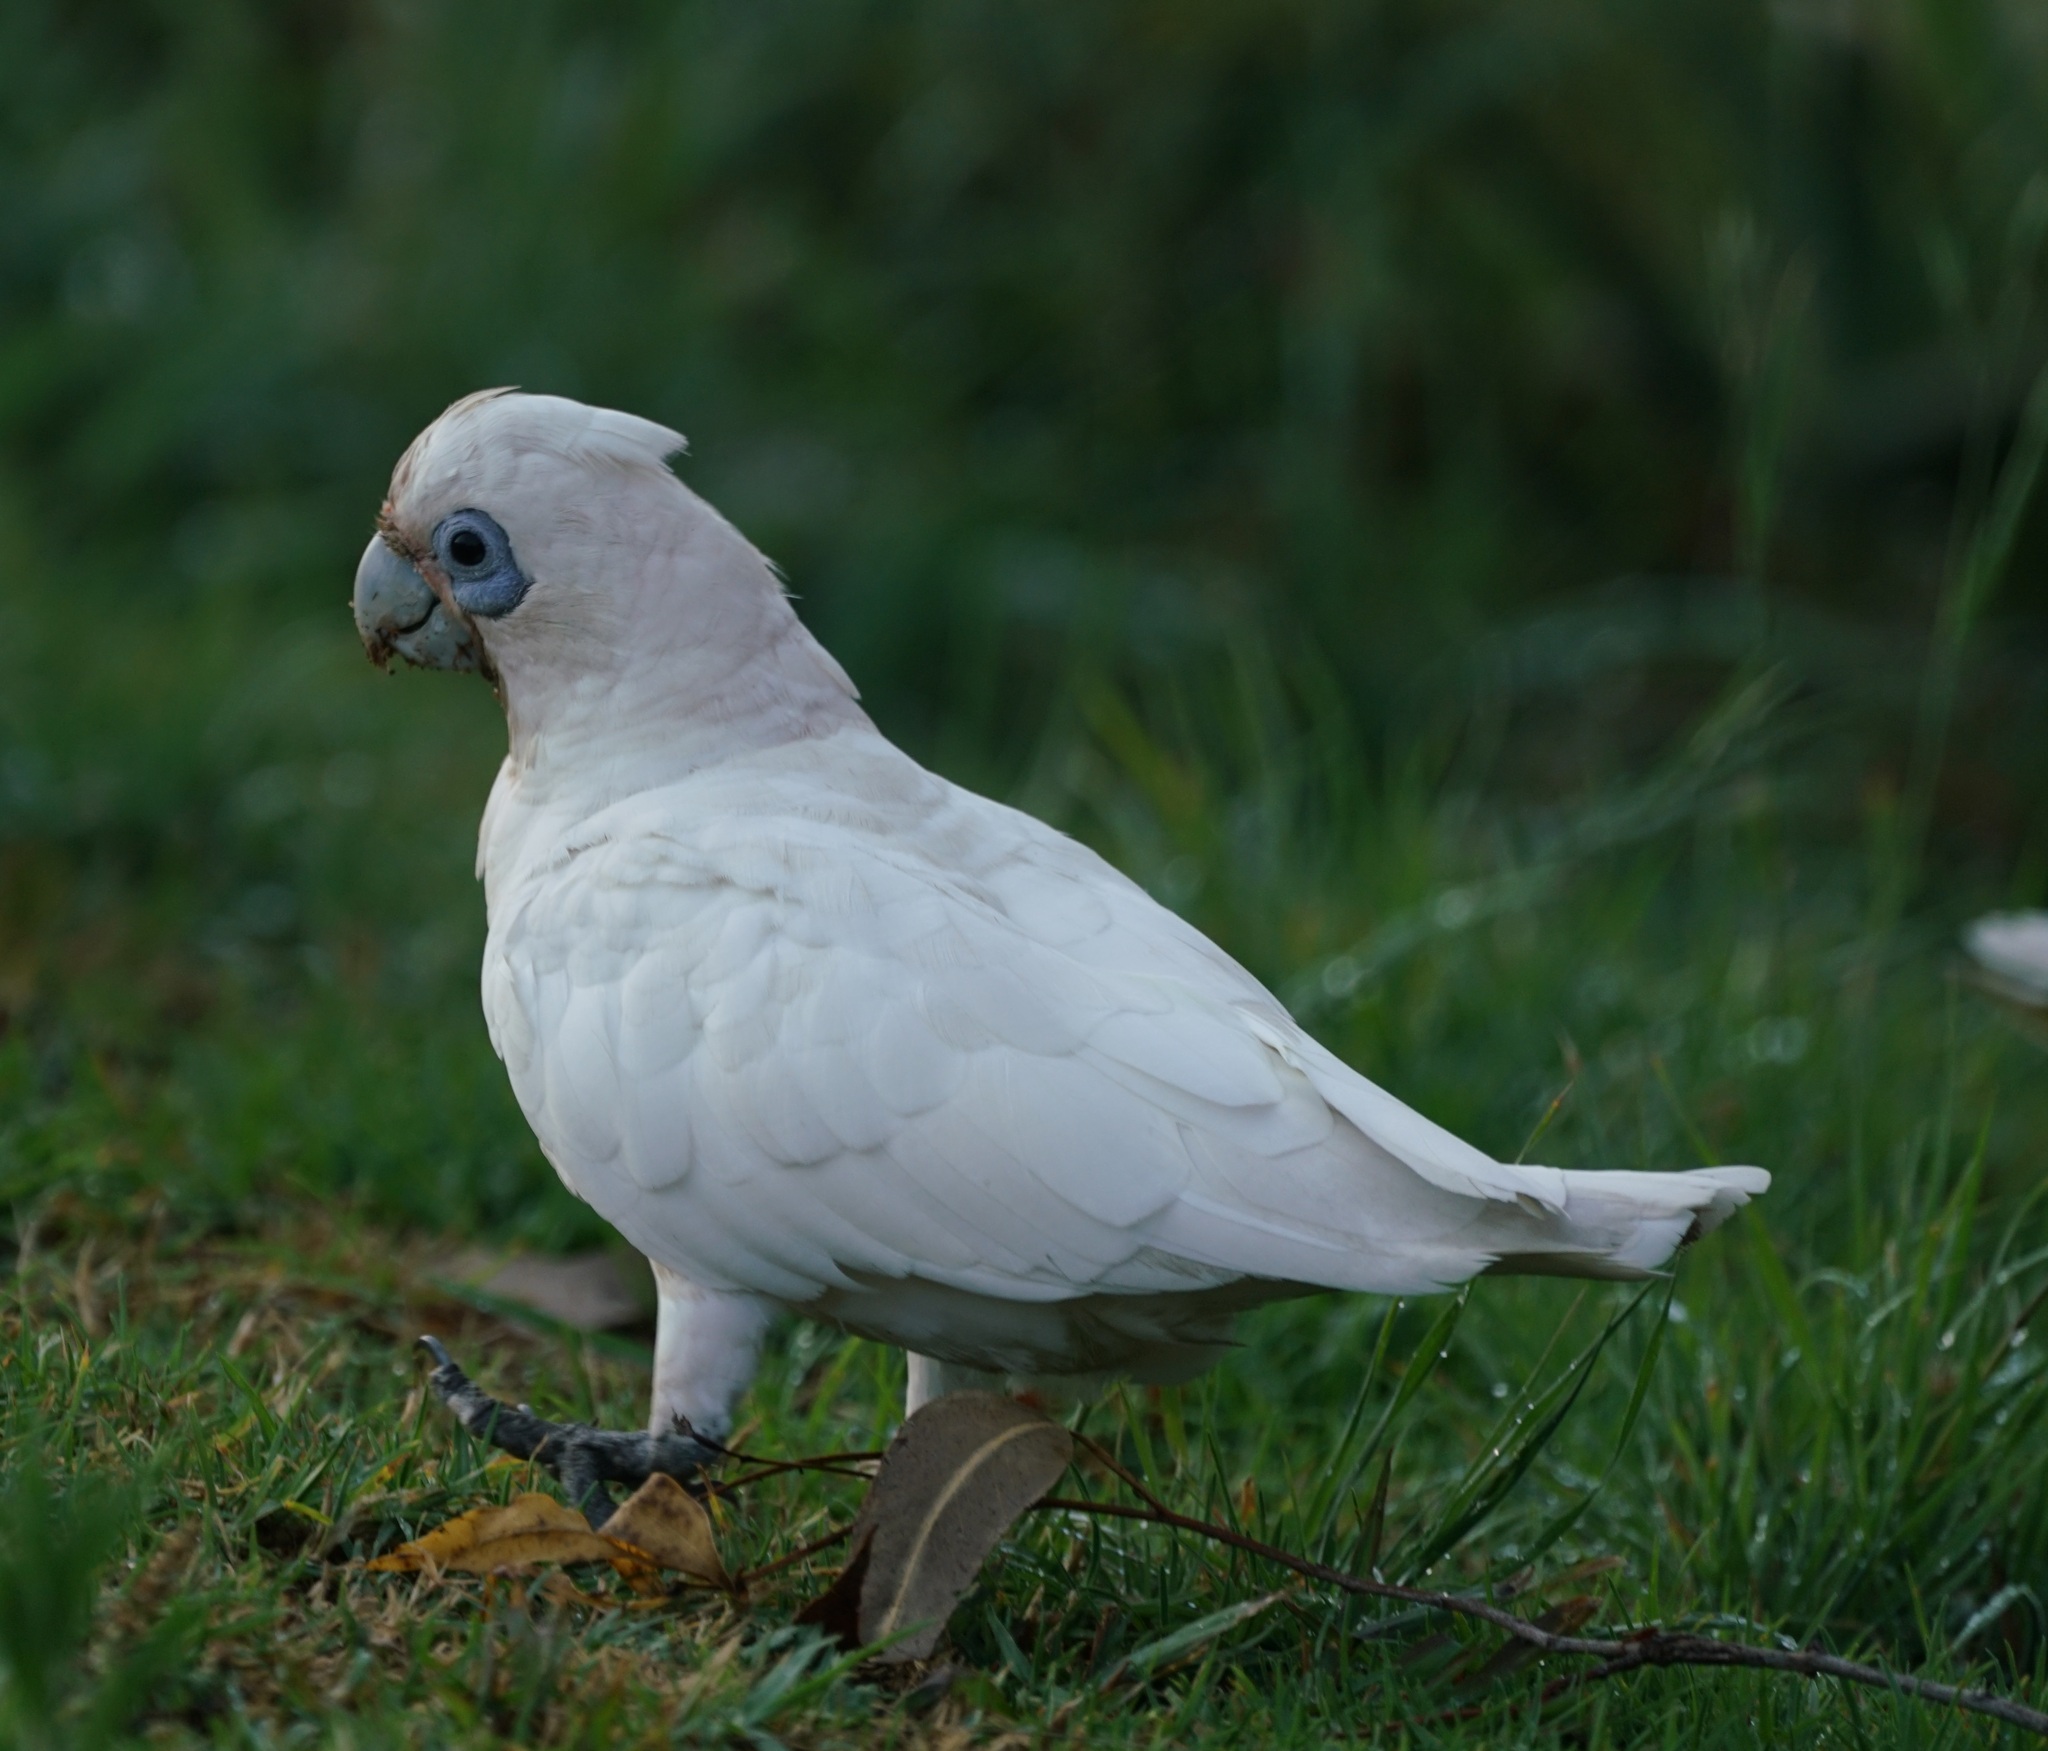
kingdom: Animalia
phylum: Chordata
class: Aves
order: Psittaciformes
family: Psittacidae
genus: Cacatua
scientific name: Cacatua sanguinea
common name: Little corella
